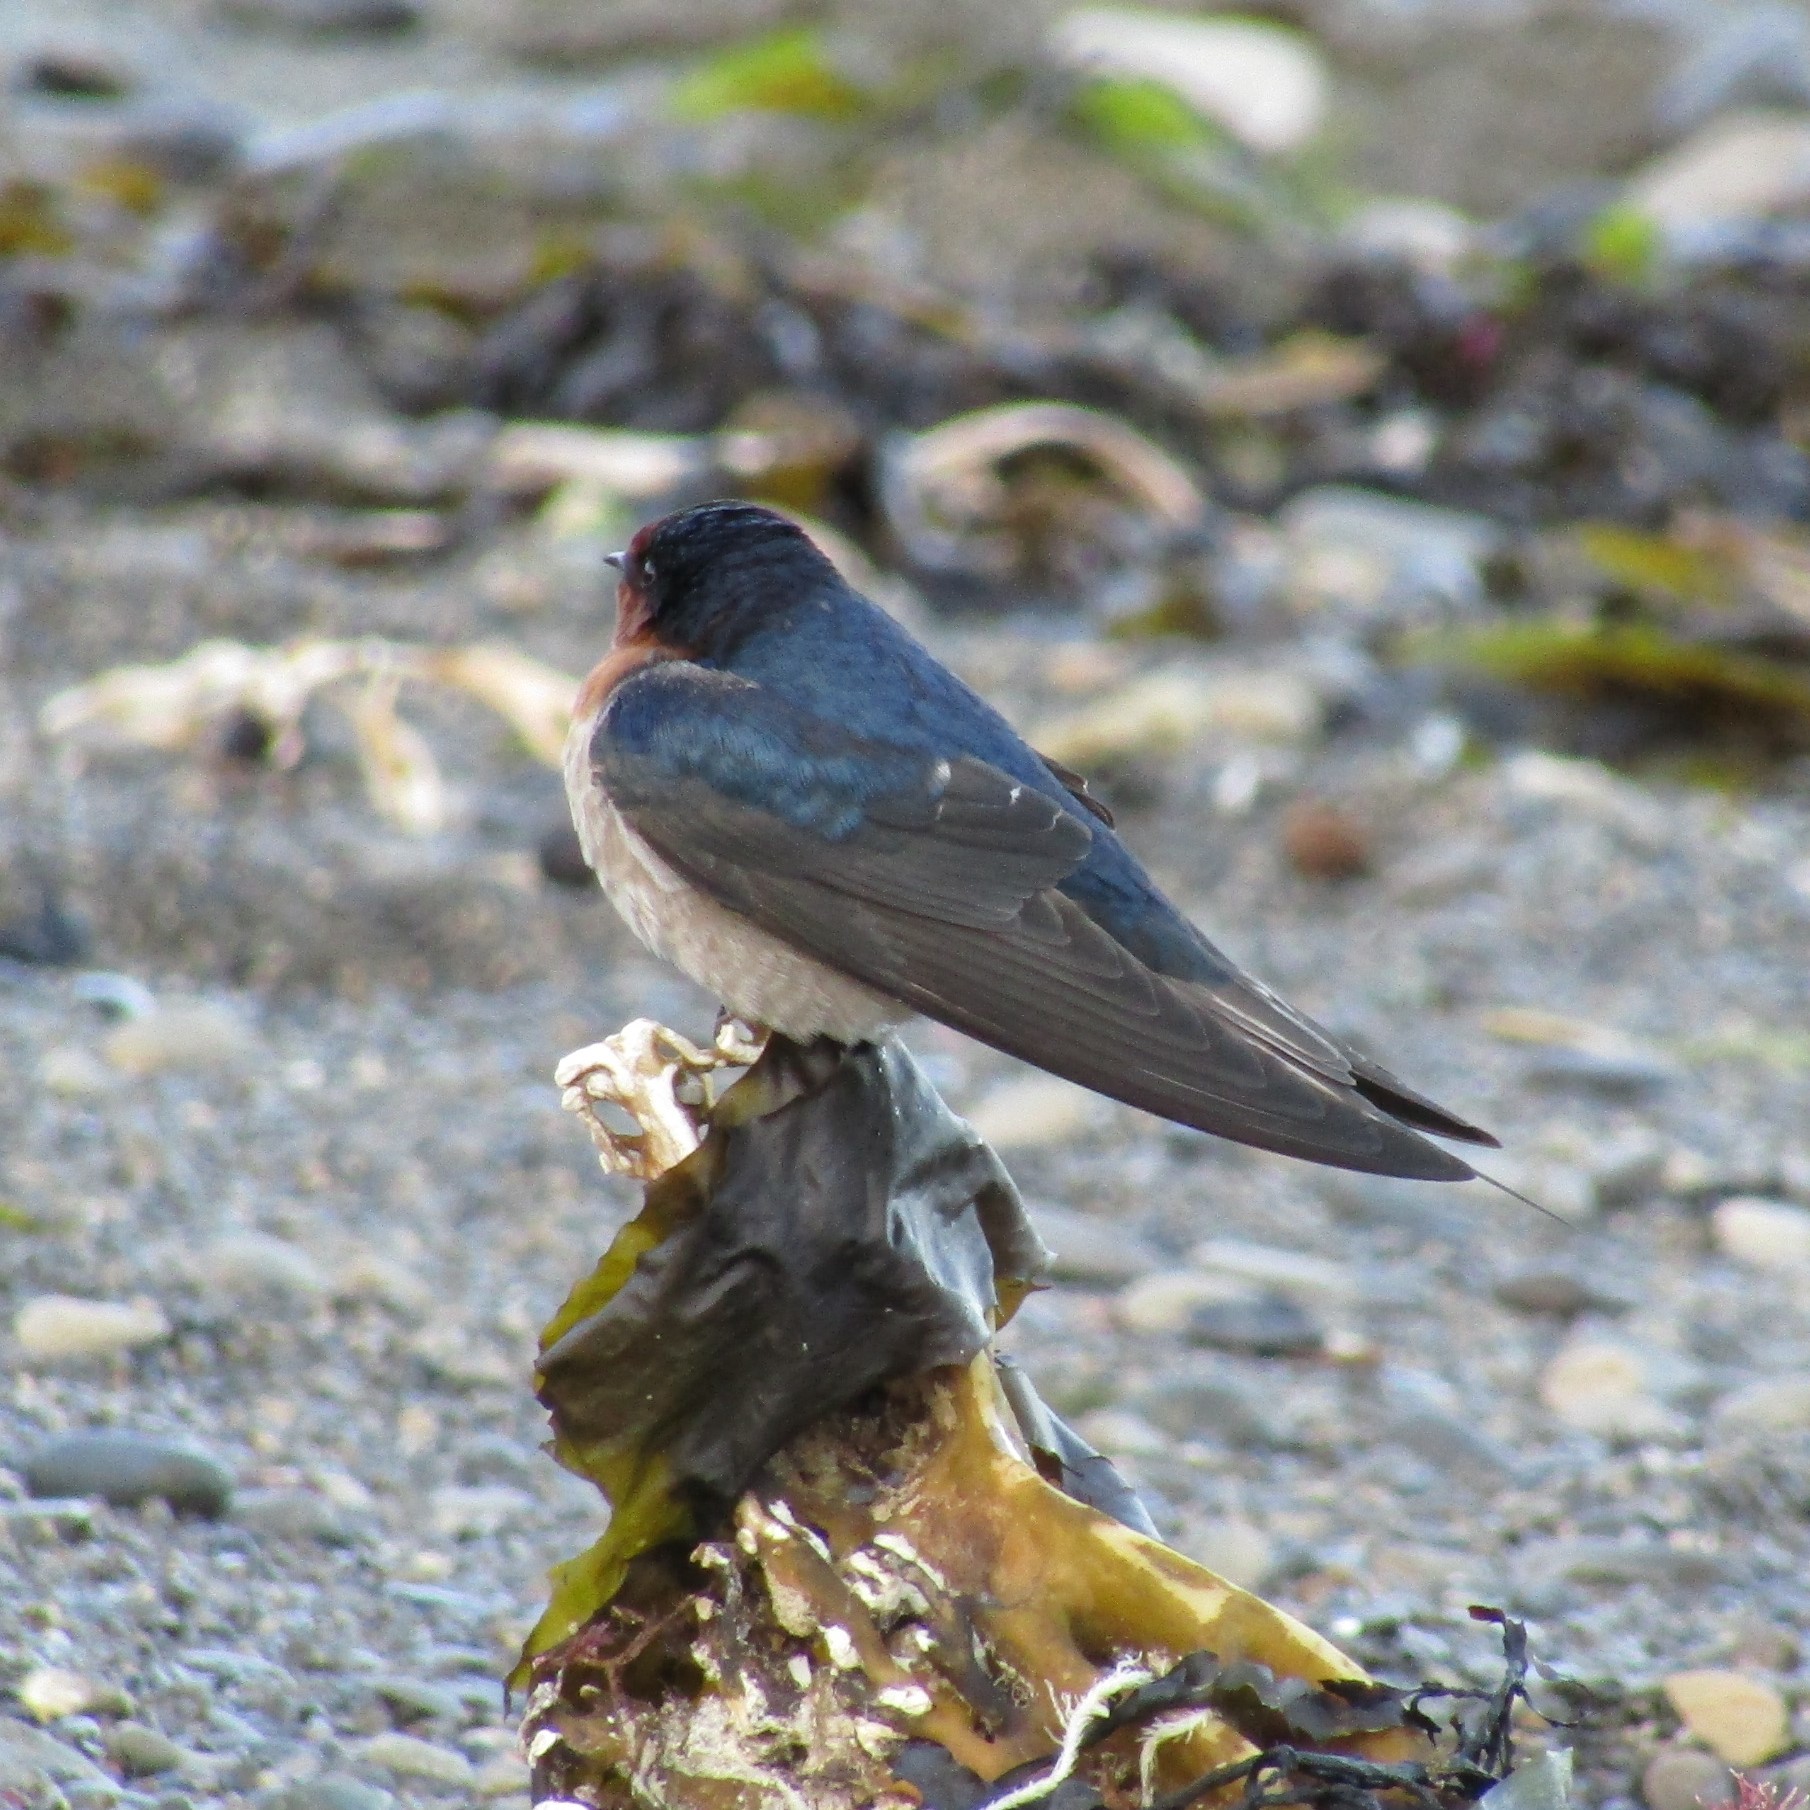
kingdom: Animalia
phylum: Chordata
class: Aves
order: Passeriformes
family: Hirundinidae
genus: Hirundo
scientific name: Hirundo neoxena
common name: Welcome swallow
